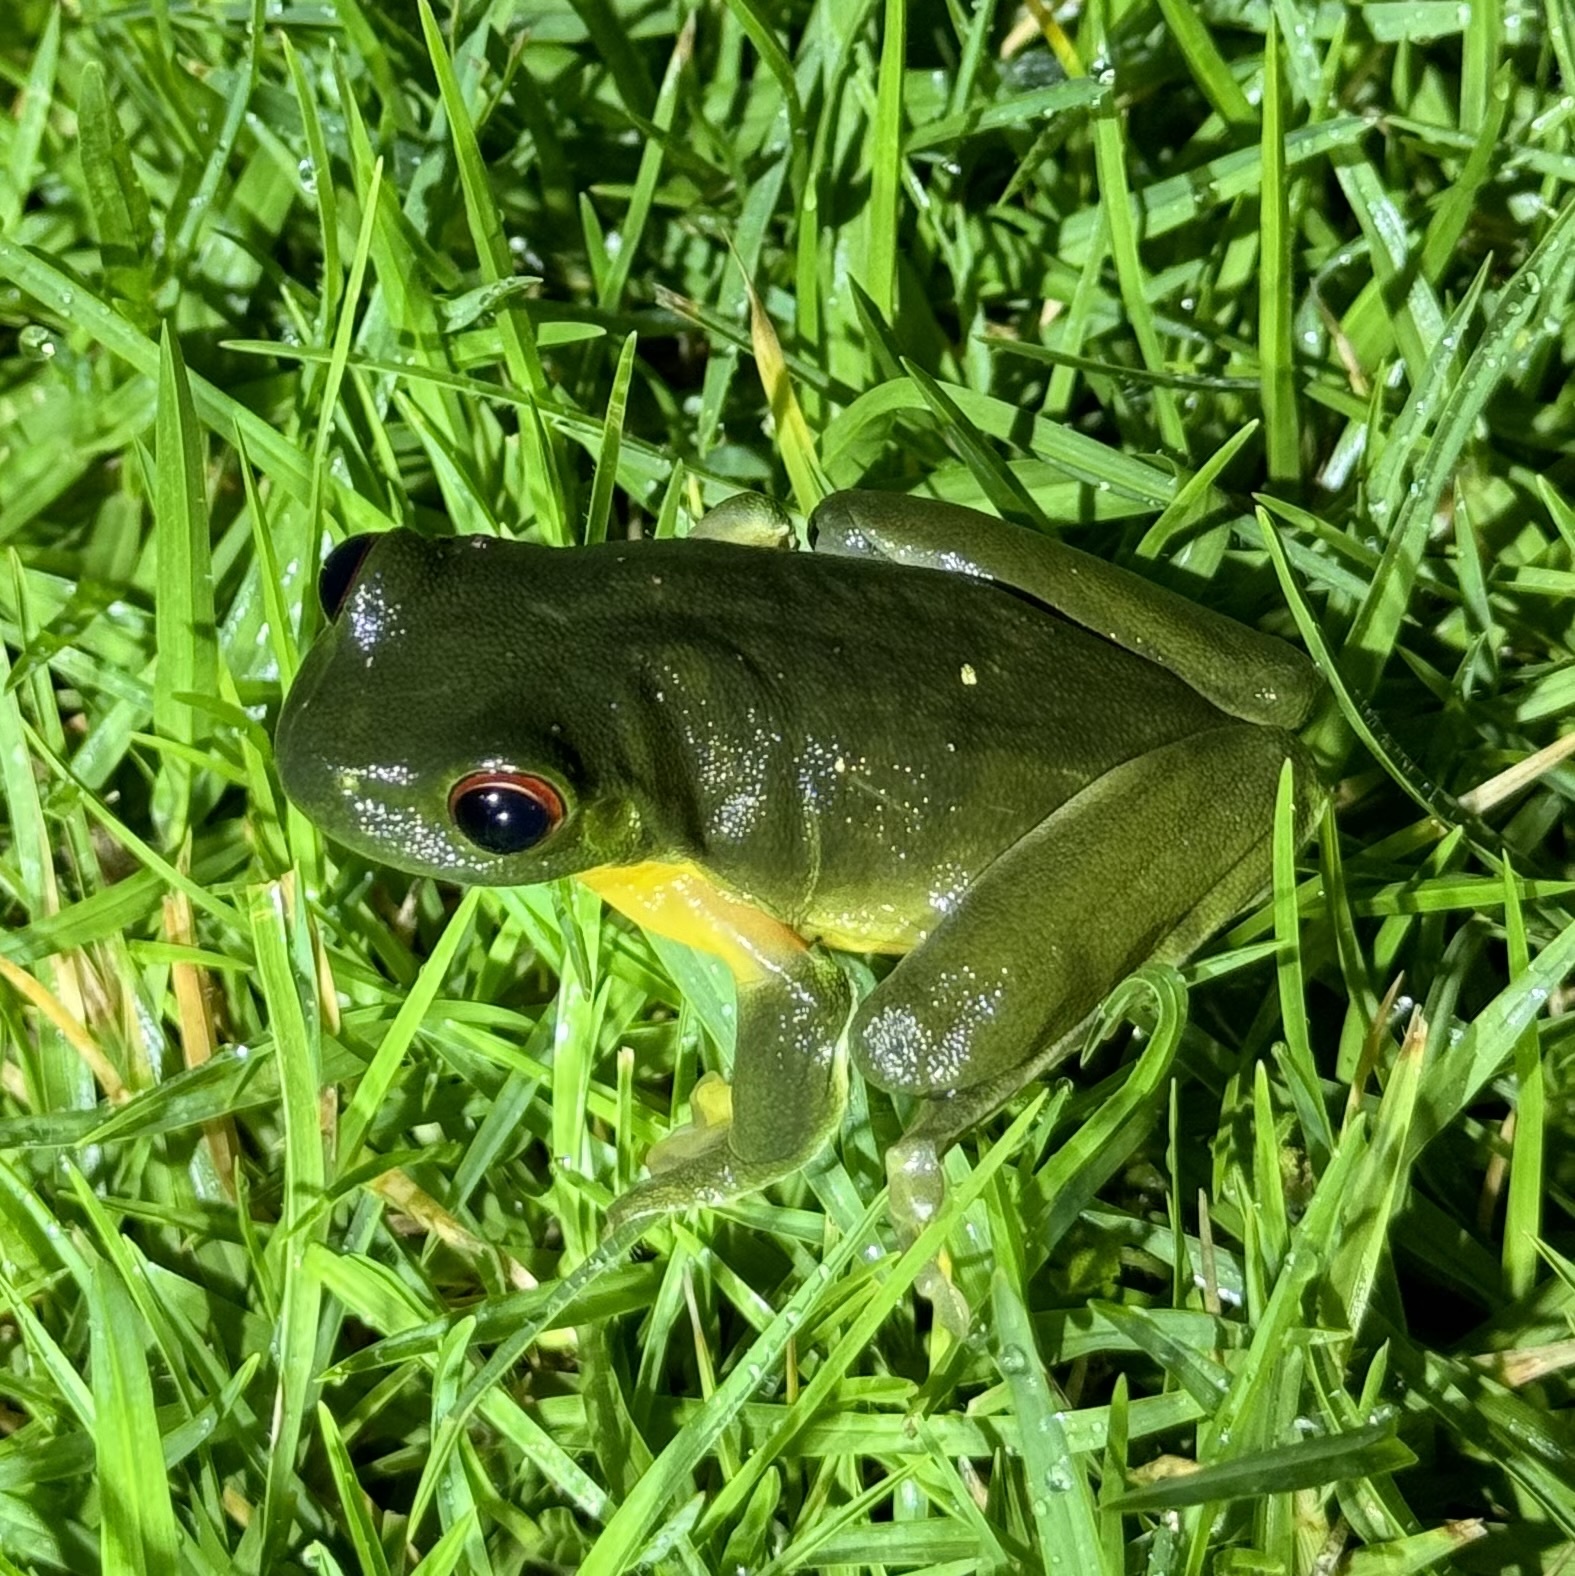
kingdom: Animalia
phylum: Chordata
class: Amphibia
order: Anura
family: Pelodryadidae
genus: Ranoidea
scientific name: Ranoidea chloris
